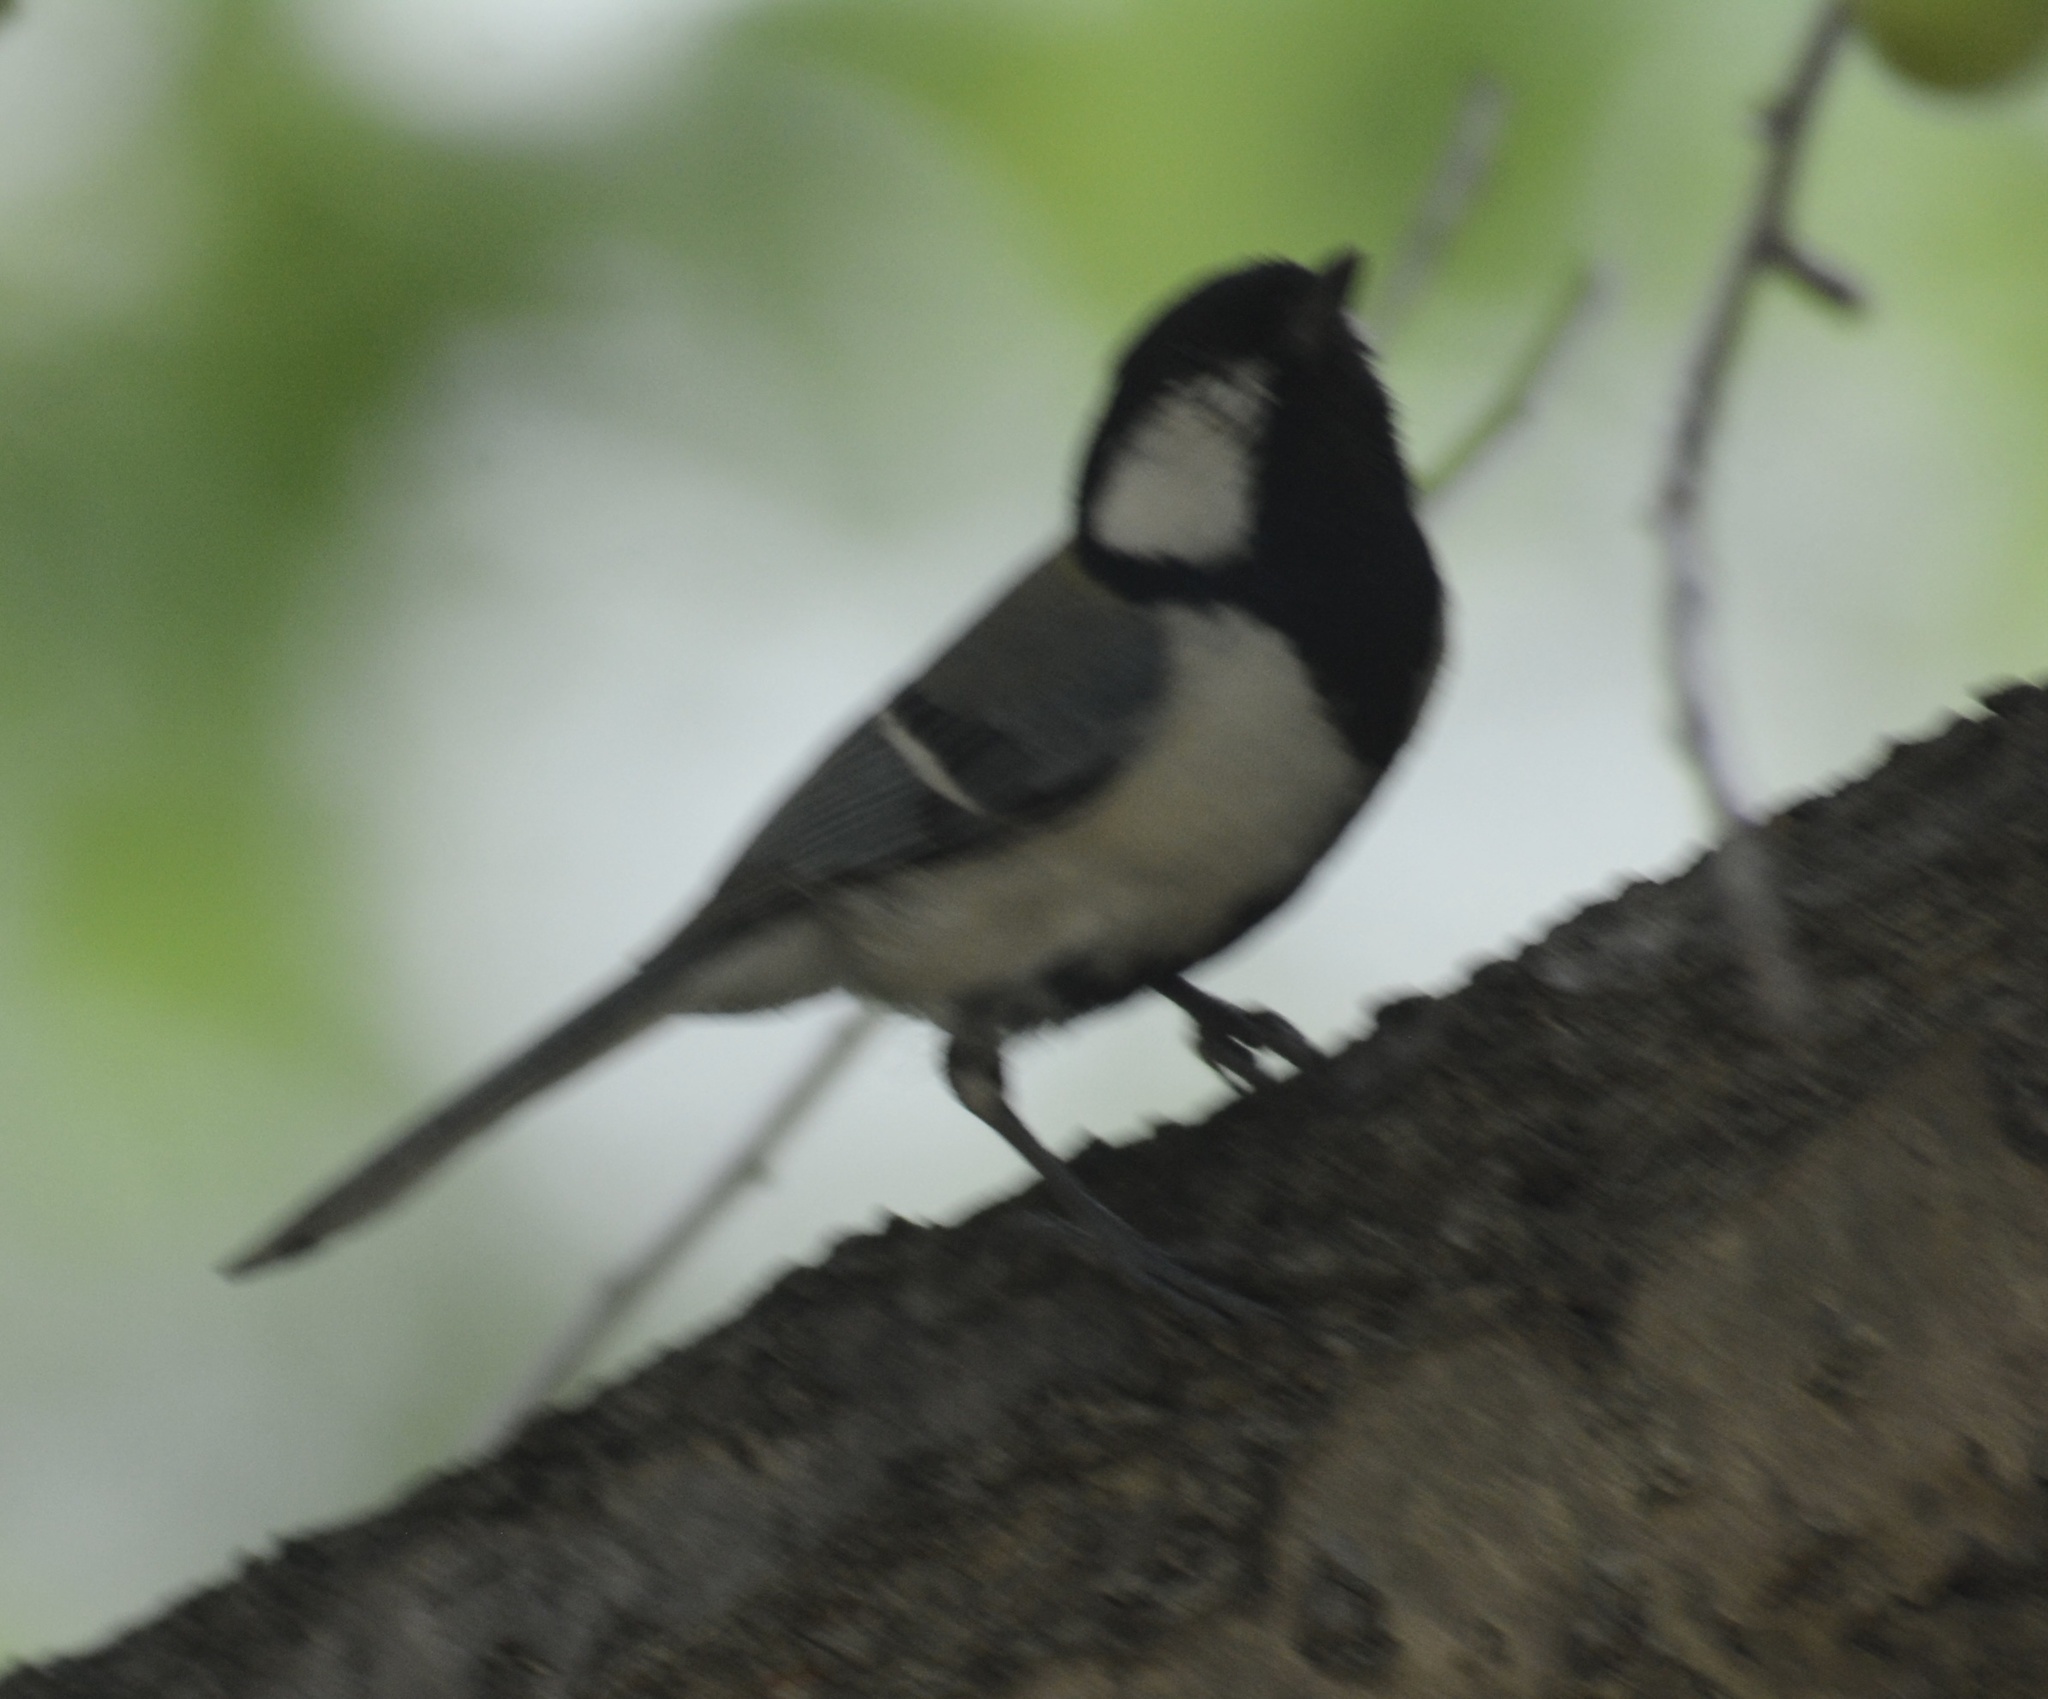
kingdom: Animalia
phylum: Chordata
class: Aves
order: Passeriformes
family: Paridae
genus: Parus
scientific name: Parus minor
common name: Japanese tit
